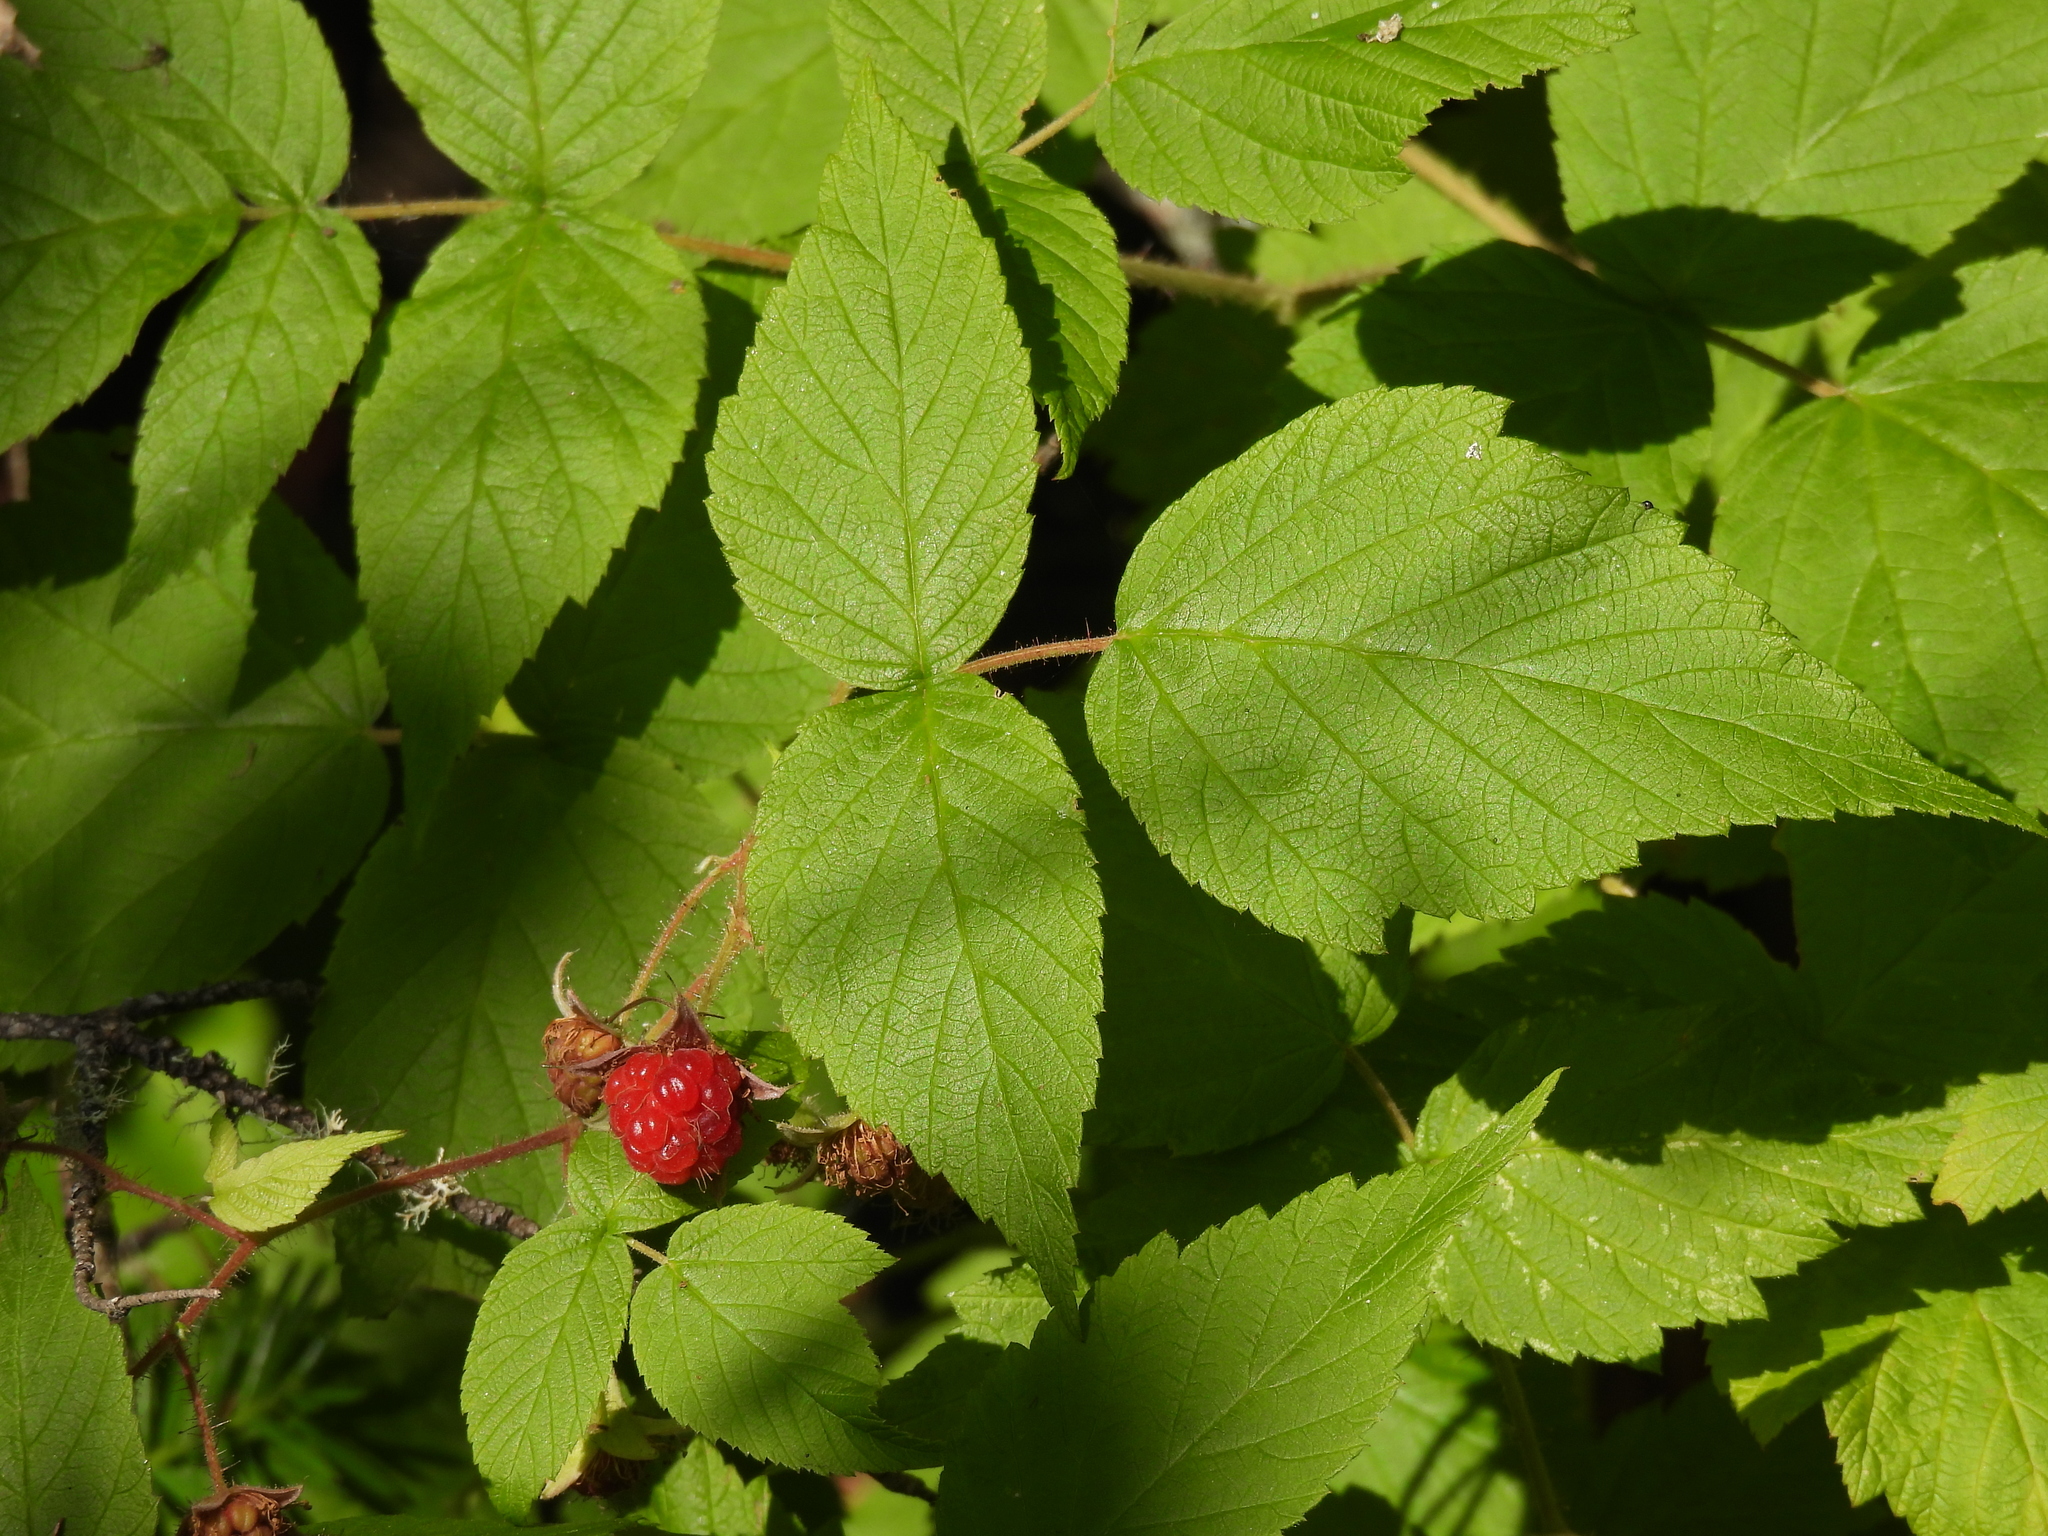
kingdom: Plantae
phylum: Tracheophyta
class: Magnoliopsida
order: Rosales
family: Rosaceae
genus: Rubus
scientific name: Rubus idaeus
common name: Raspberry
